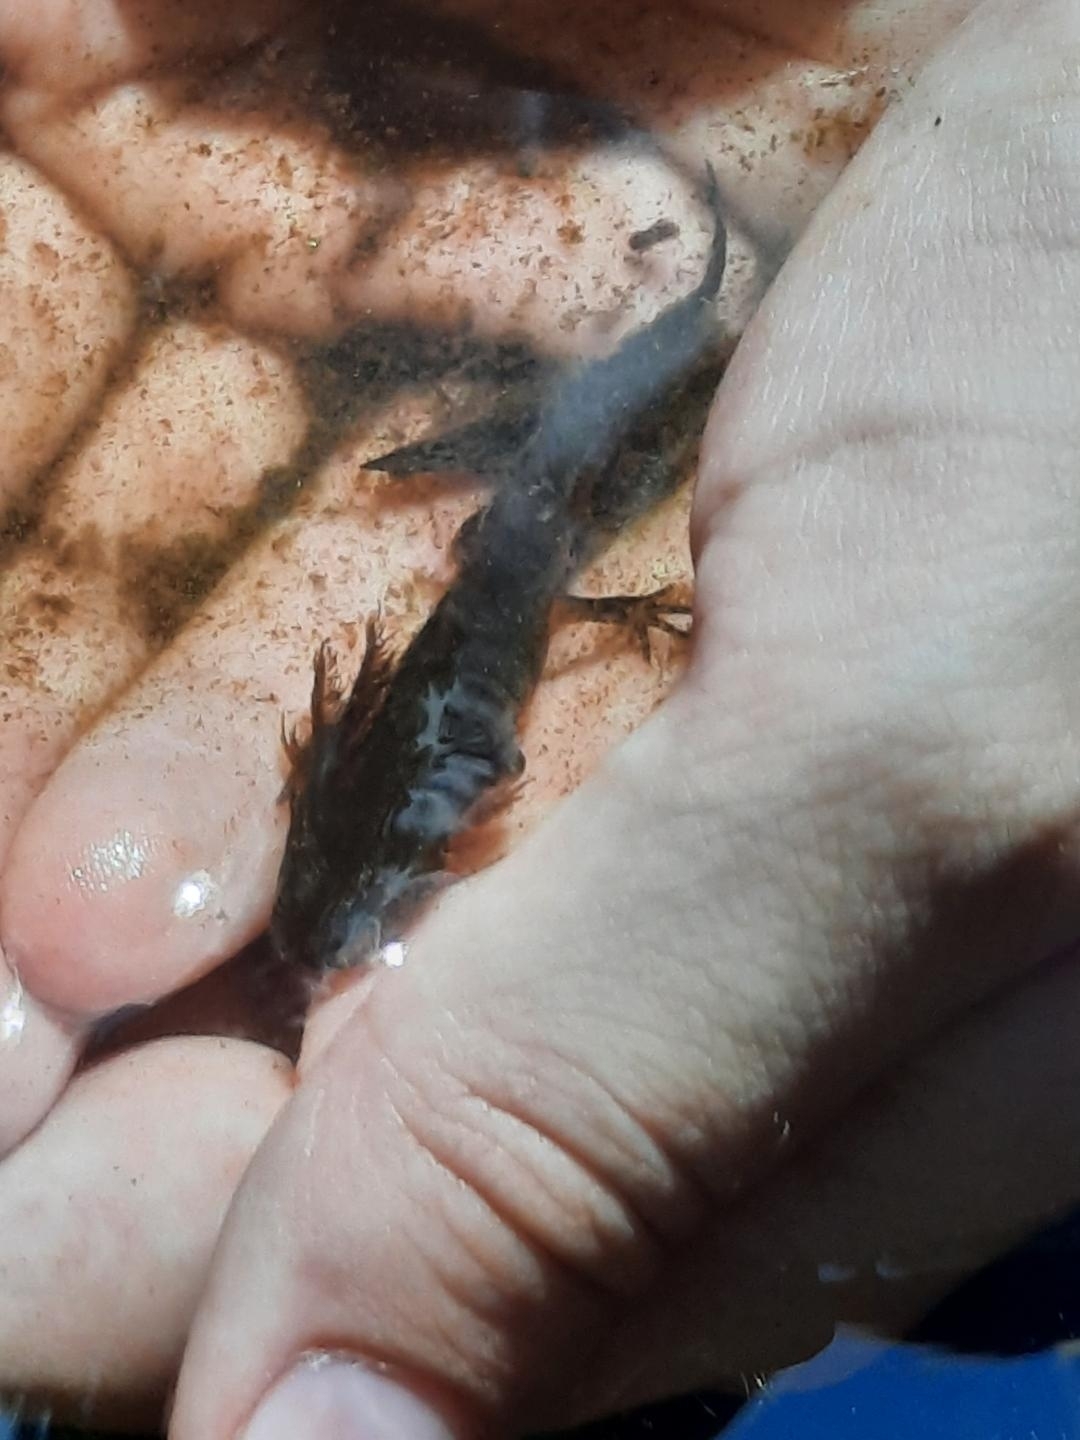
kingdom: Animalia
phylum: Chordata
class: Amphibia
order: Caudata
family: Ambystomatidae
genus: Ambystoma
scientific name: Ambystoma
